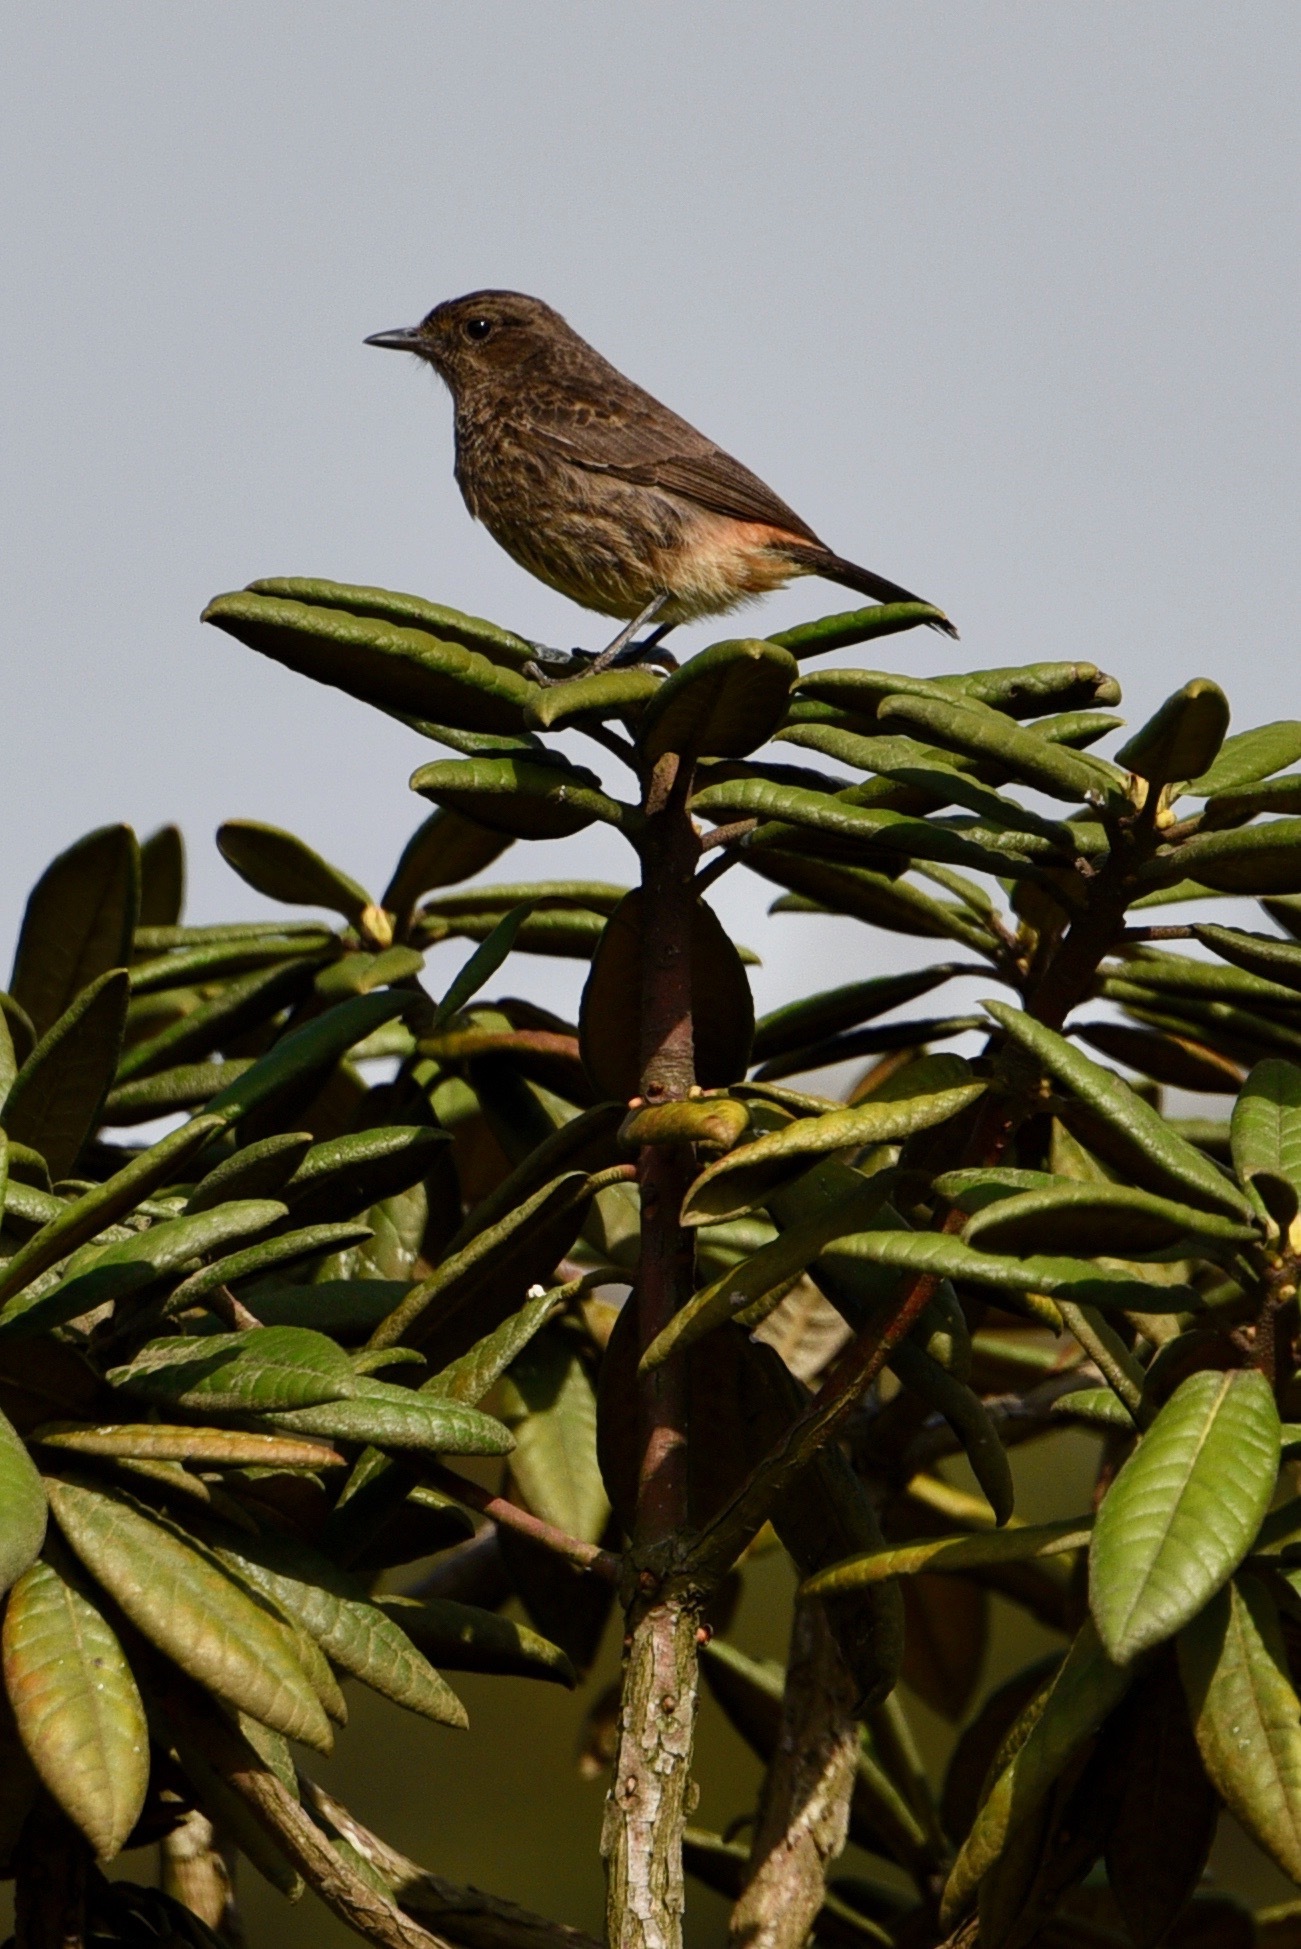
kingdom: Animalia
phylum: Chordata
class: Aves
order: Passeriformes
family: Muscicapidae
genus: Saxicola
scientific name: Saxicola caprata
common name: Pied bush chat
